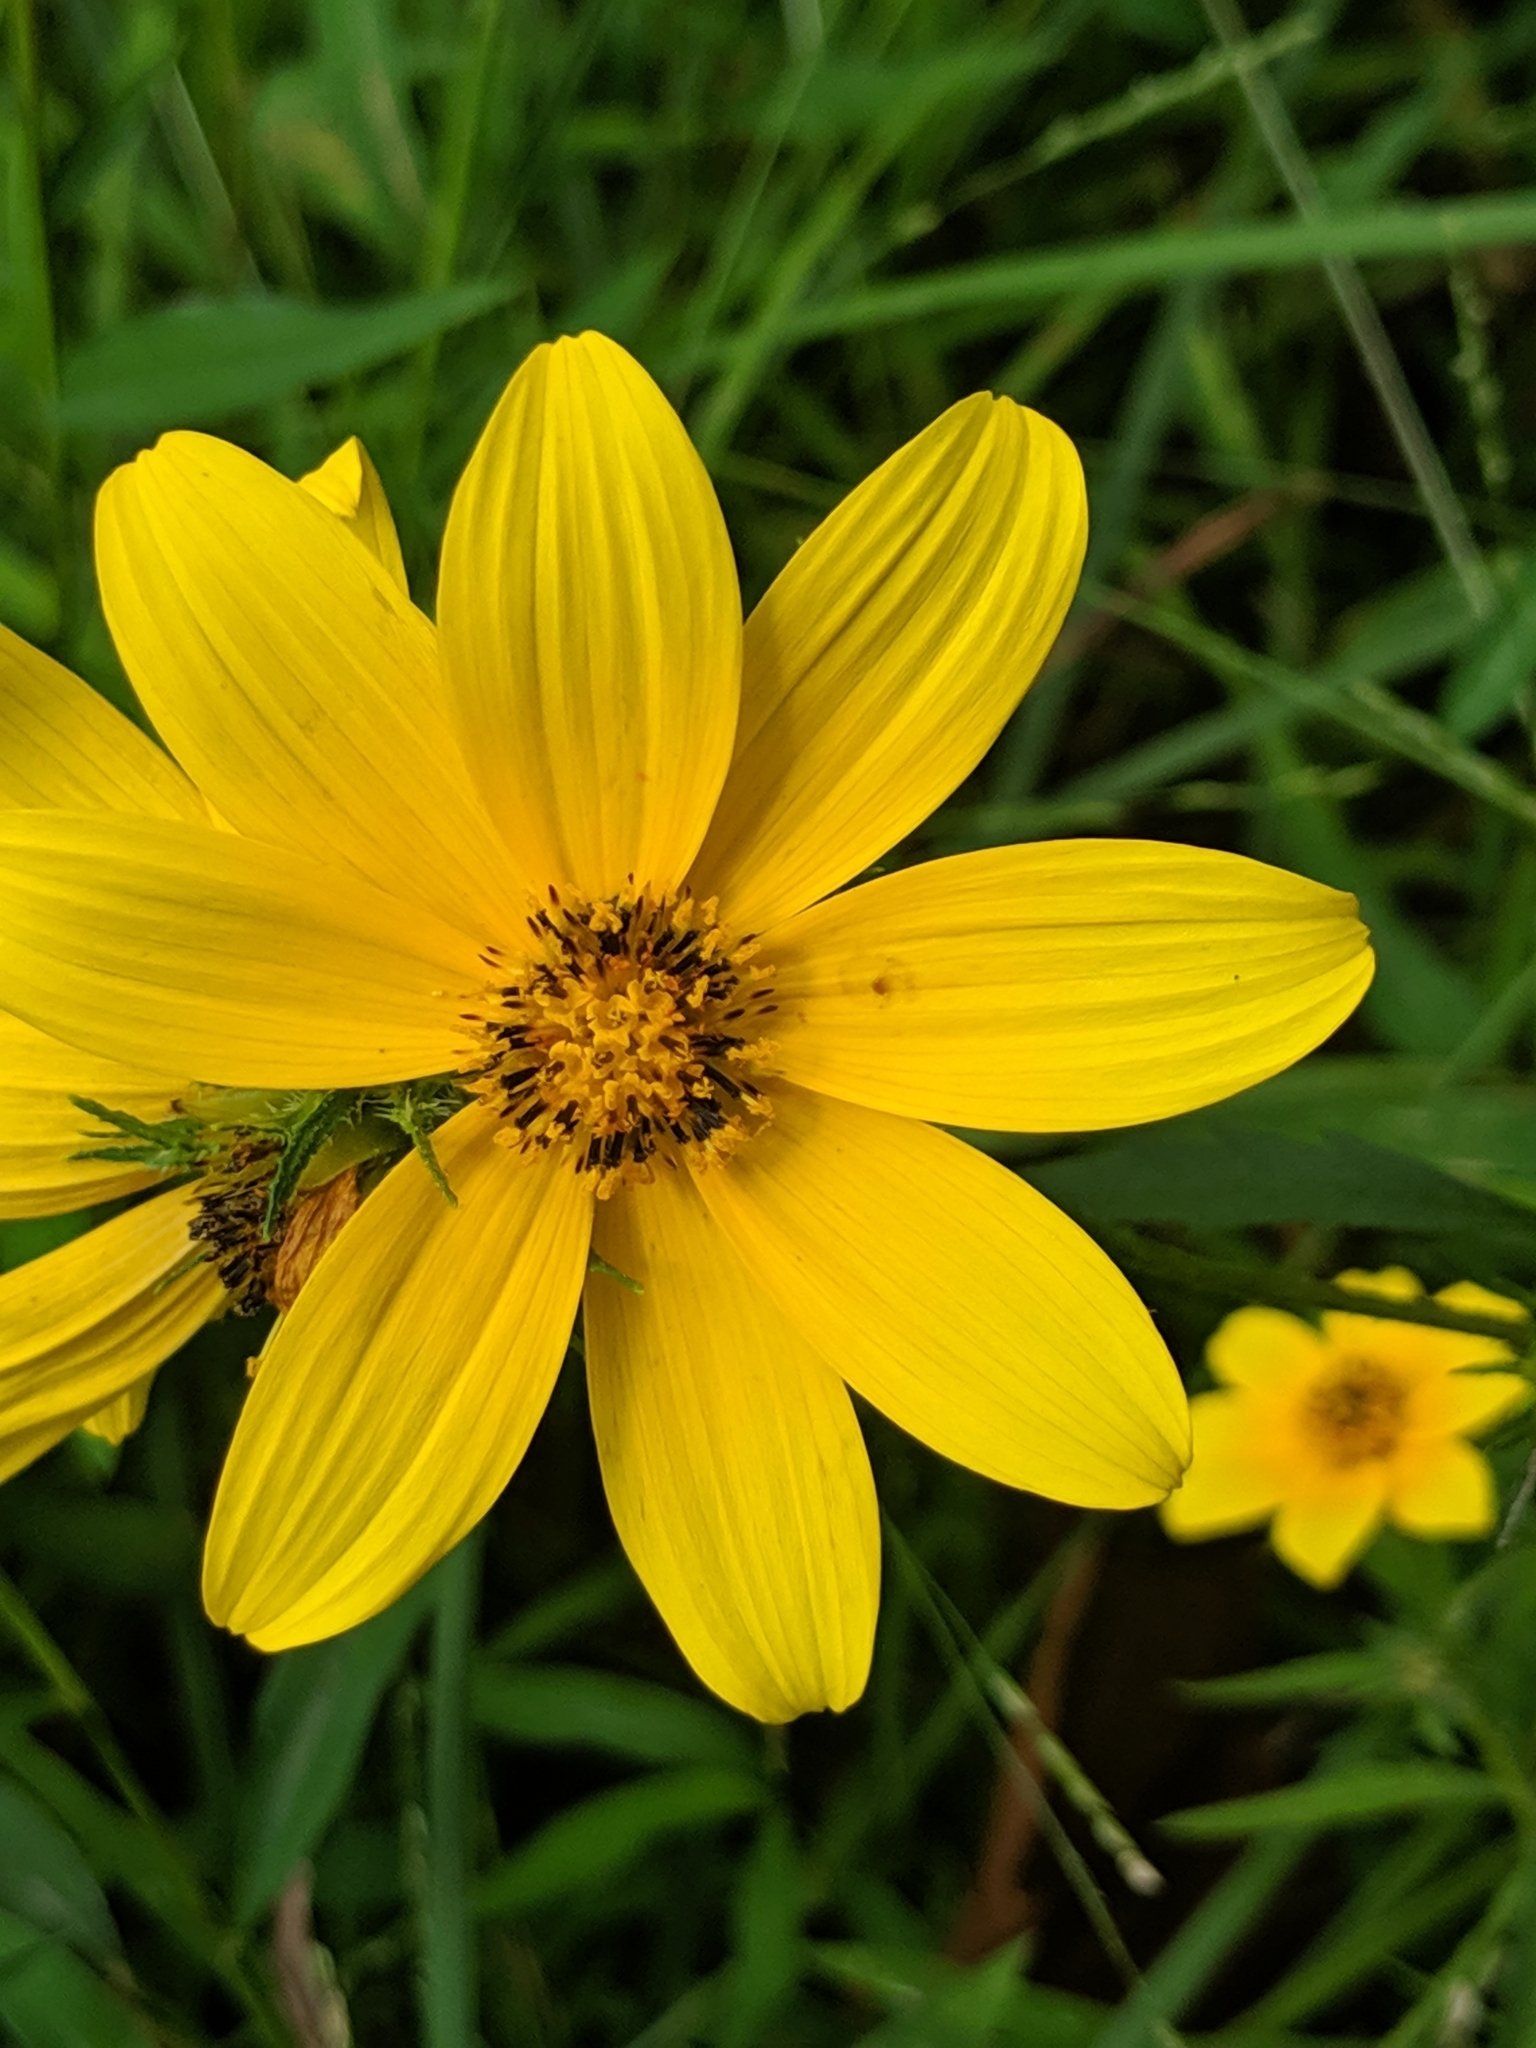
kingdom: Plantae
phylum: Tracheophyta
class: Magnoliopsida
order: Asterales
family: Asteraceae
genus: Bidens
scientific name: Bidens aristosa
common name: Western tickseed
